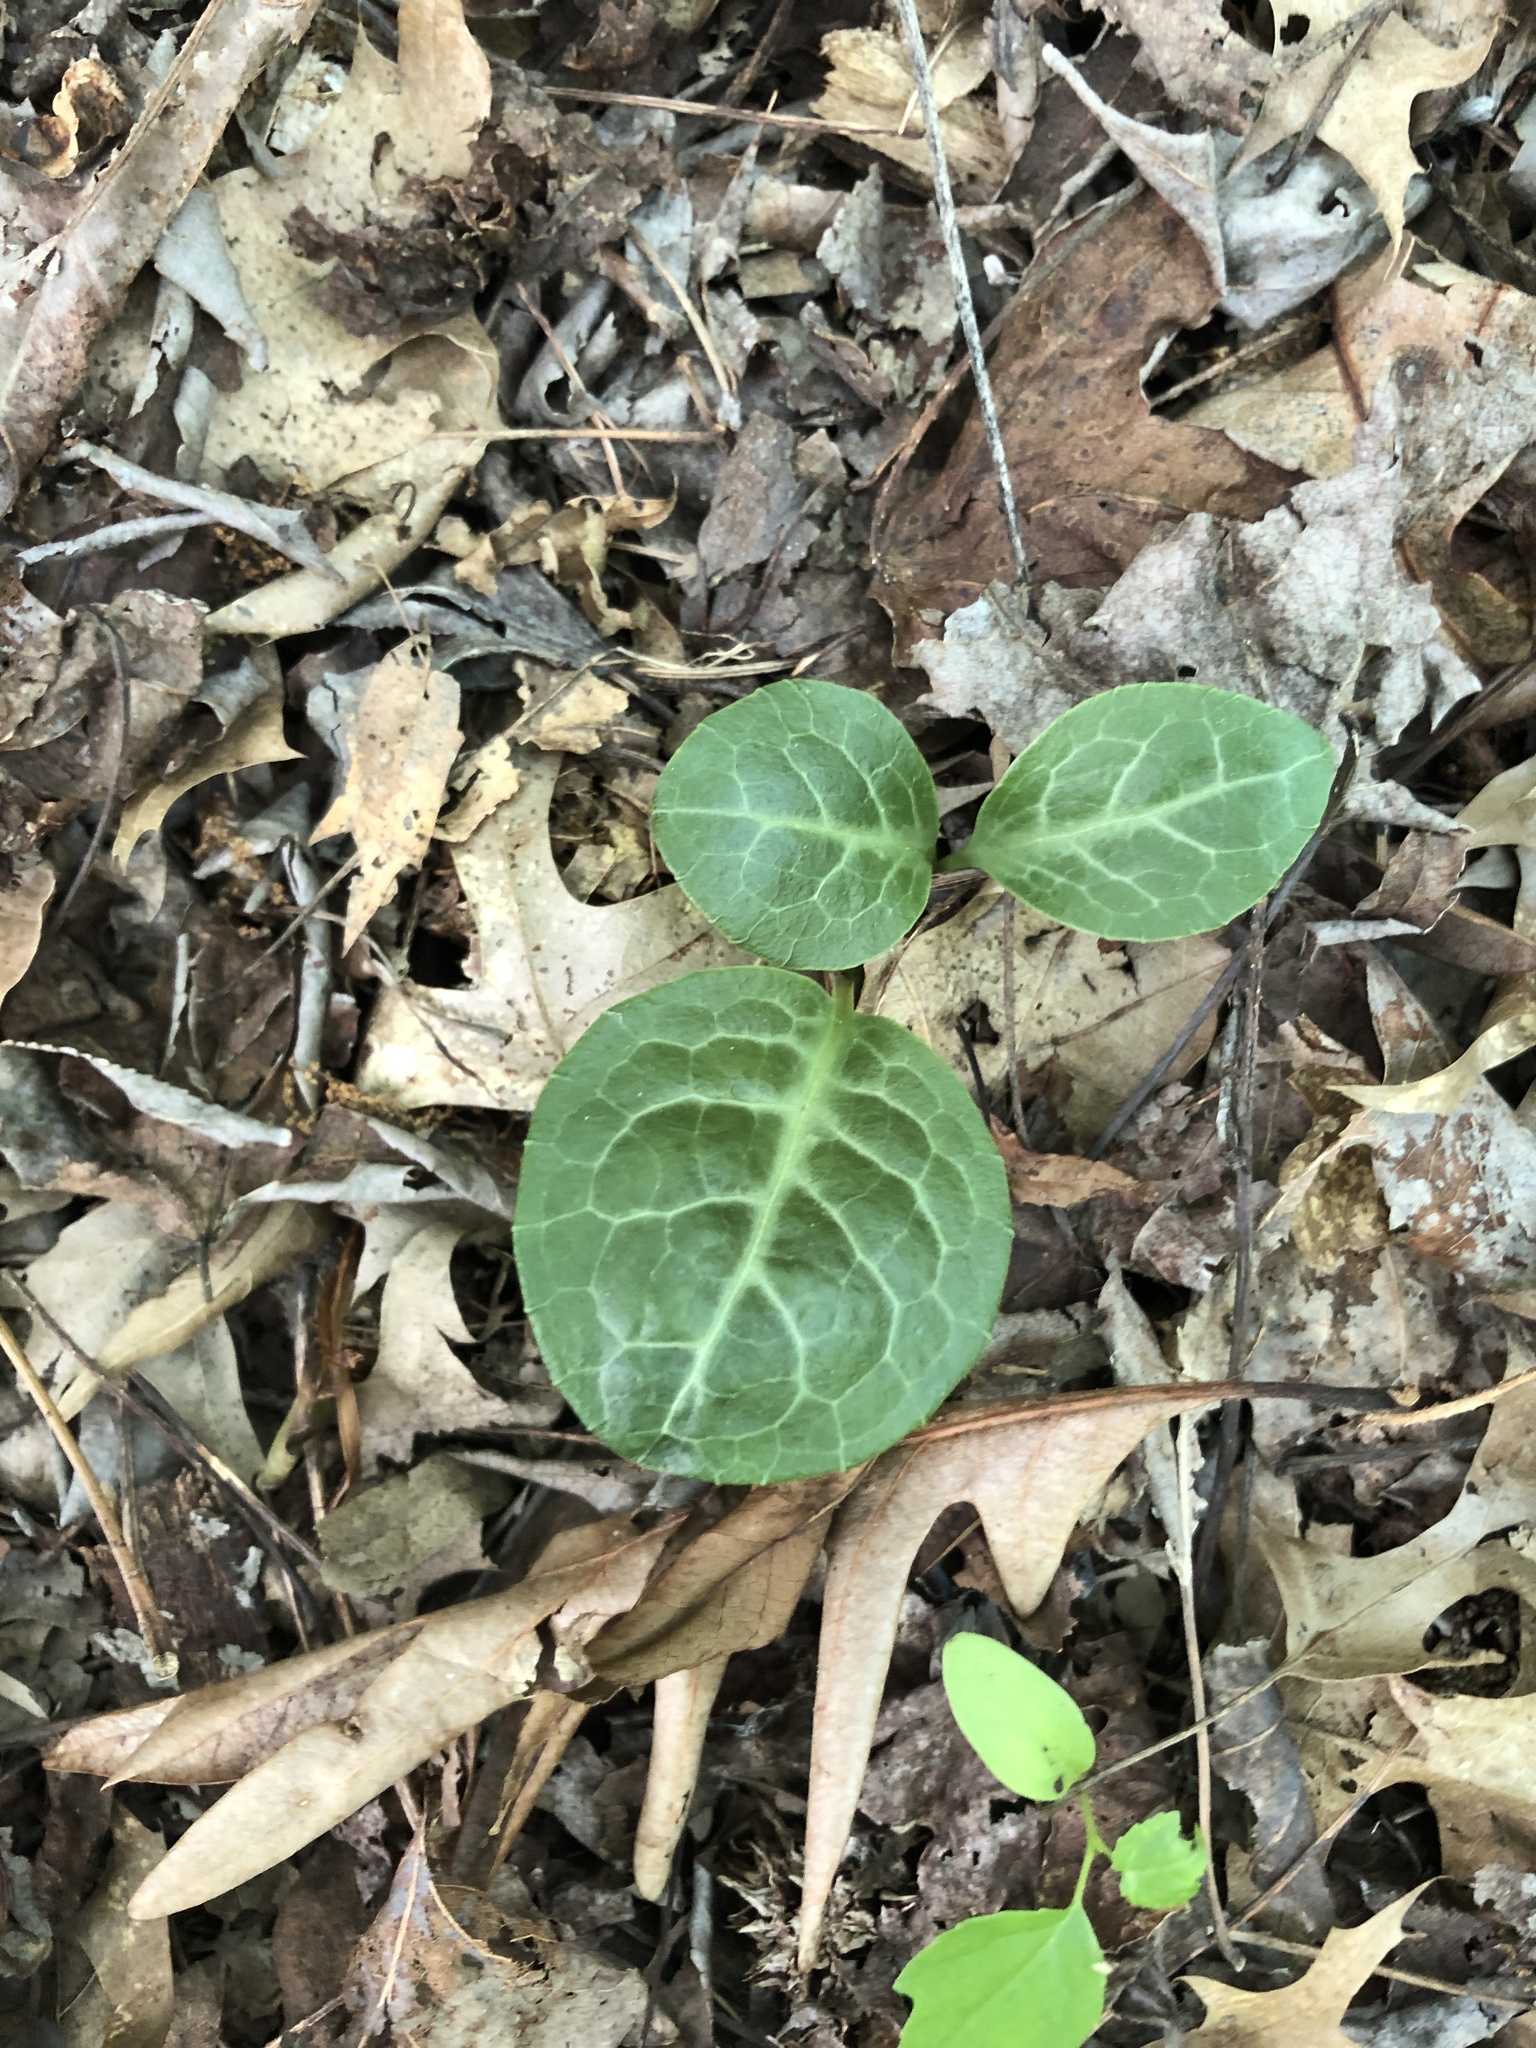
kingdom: Plantae
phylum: Tracheophyta
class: Magnoliopsida
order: Ericales
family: Ericaceae
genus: Pyrola
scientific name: Pyrola americana
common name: American wintergreen
